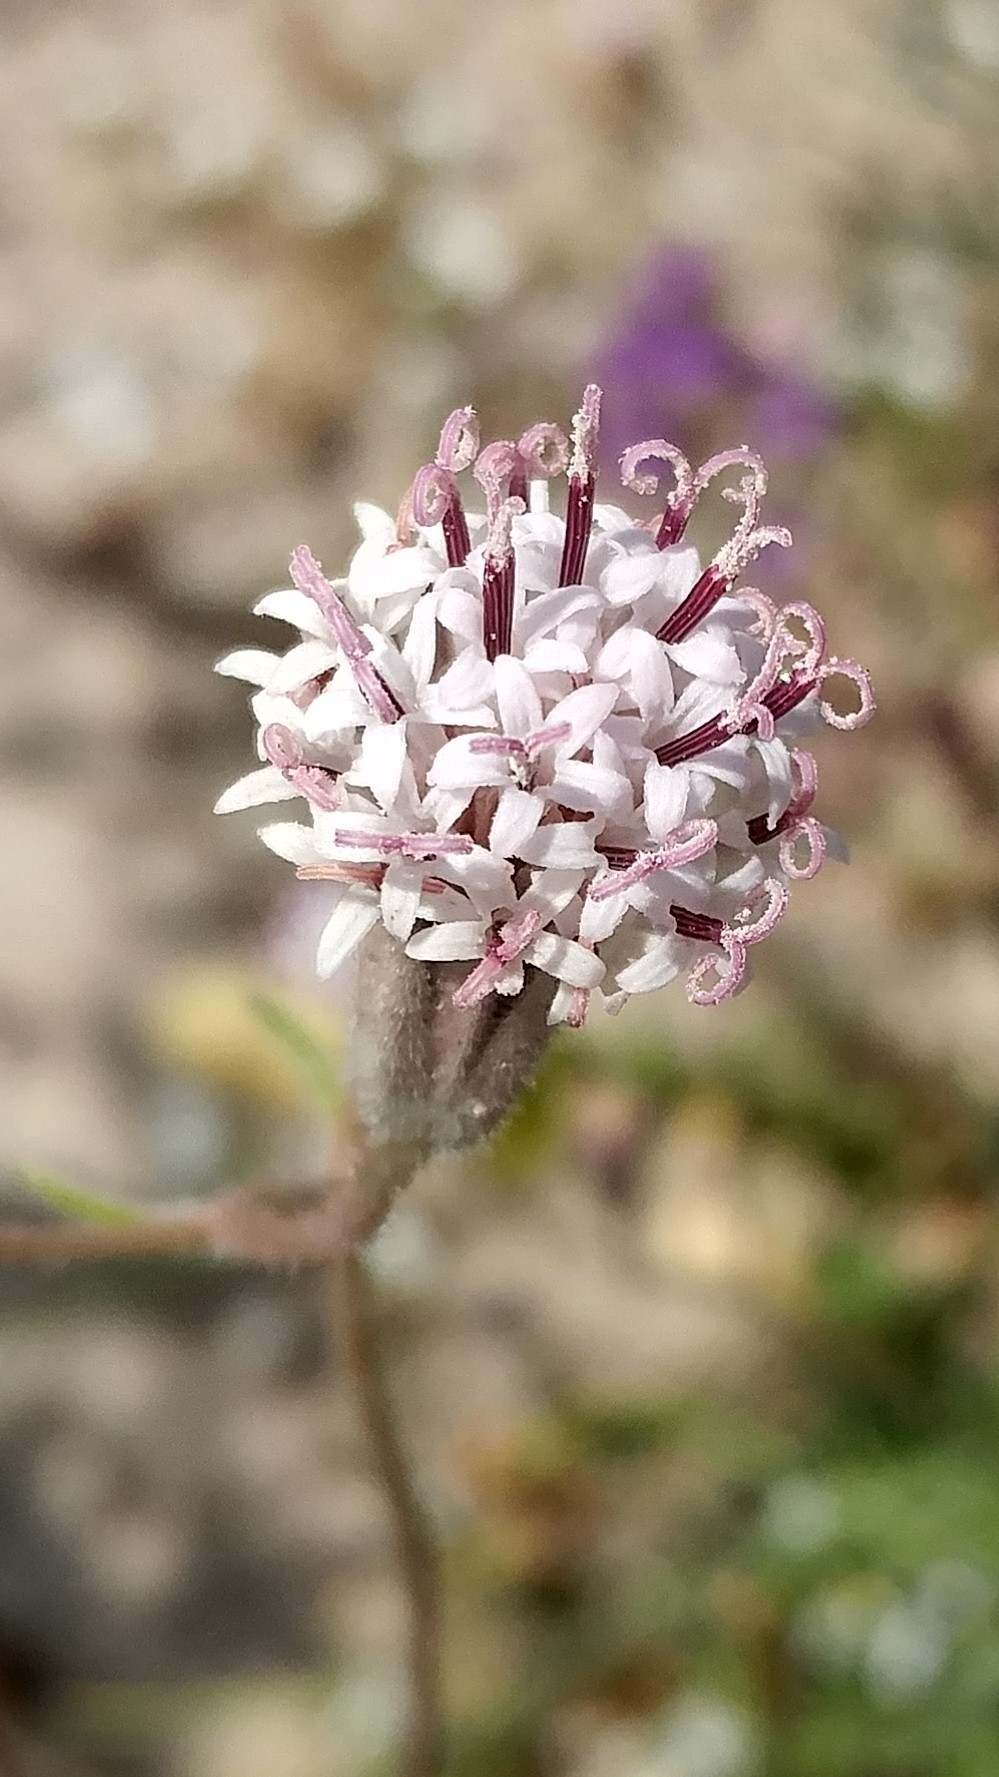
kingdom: Plantae
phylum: Tracheophyta
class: Magnoliopsida
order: Asterales
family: Asteraceae
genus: Palafoxia
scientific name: Palafoxia arida
